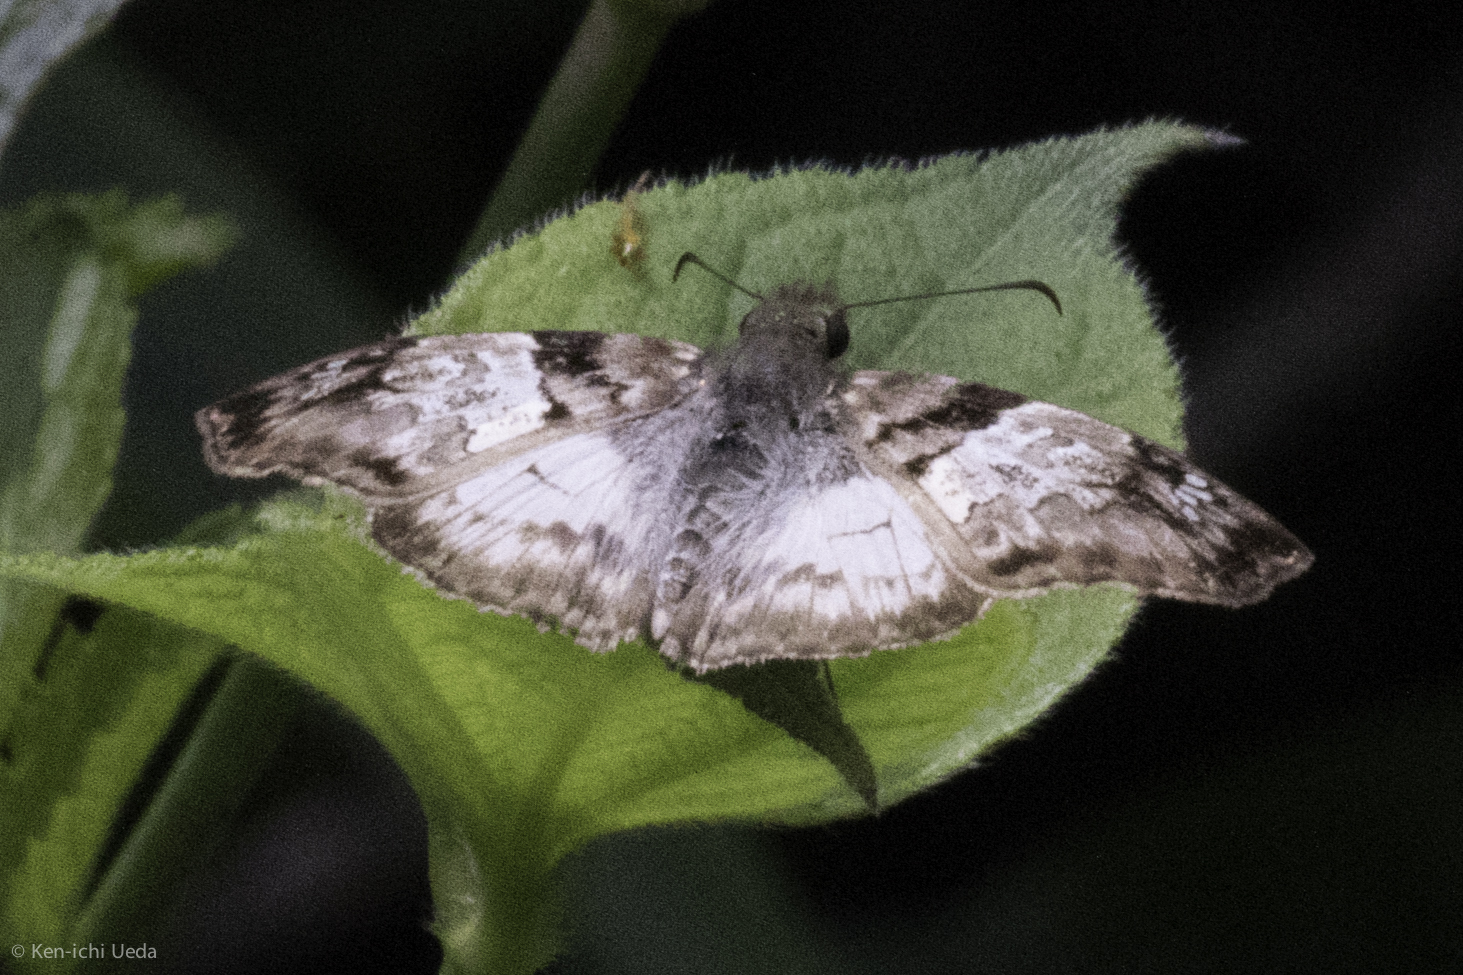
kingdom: Animalia
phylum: Arthropoda
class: Insecta
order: Lepidoptera
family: Hesperiidae
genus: Mylon
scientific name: Mylon lassia
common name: Bold mylon
